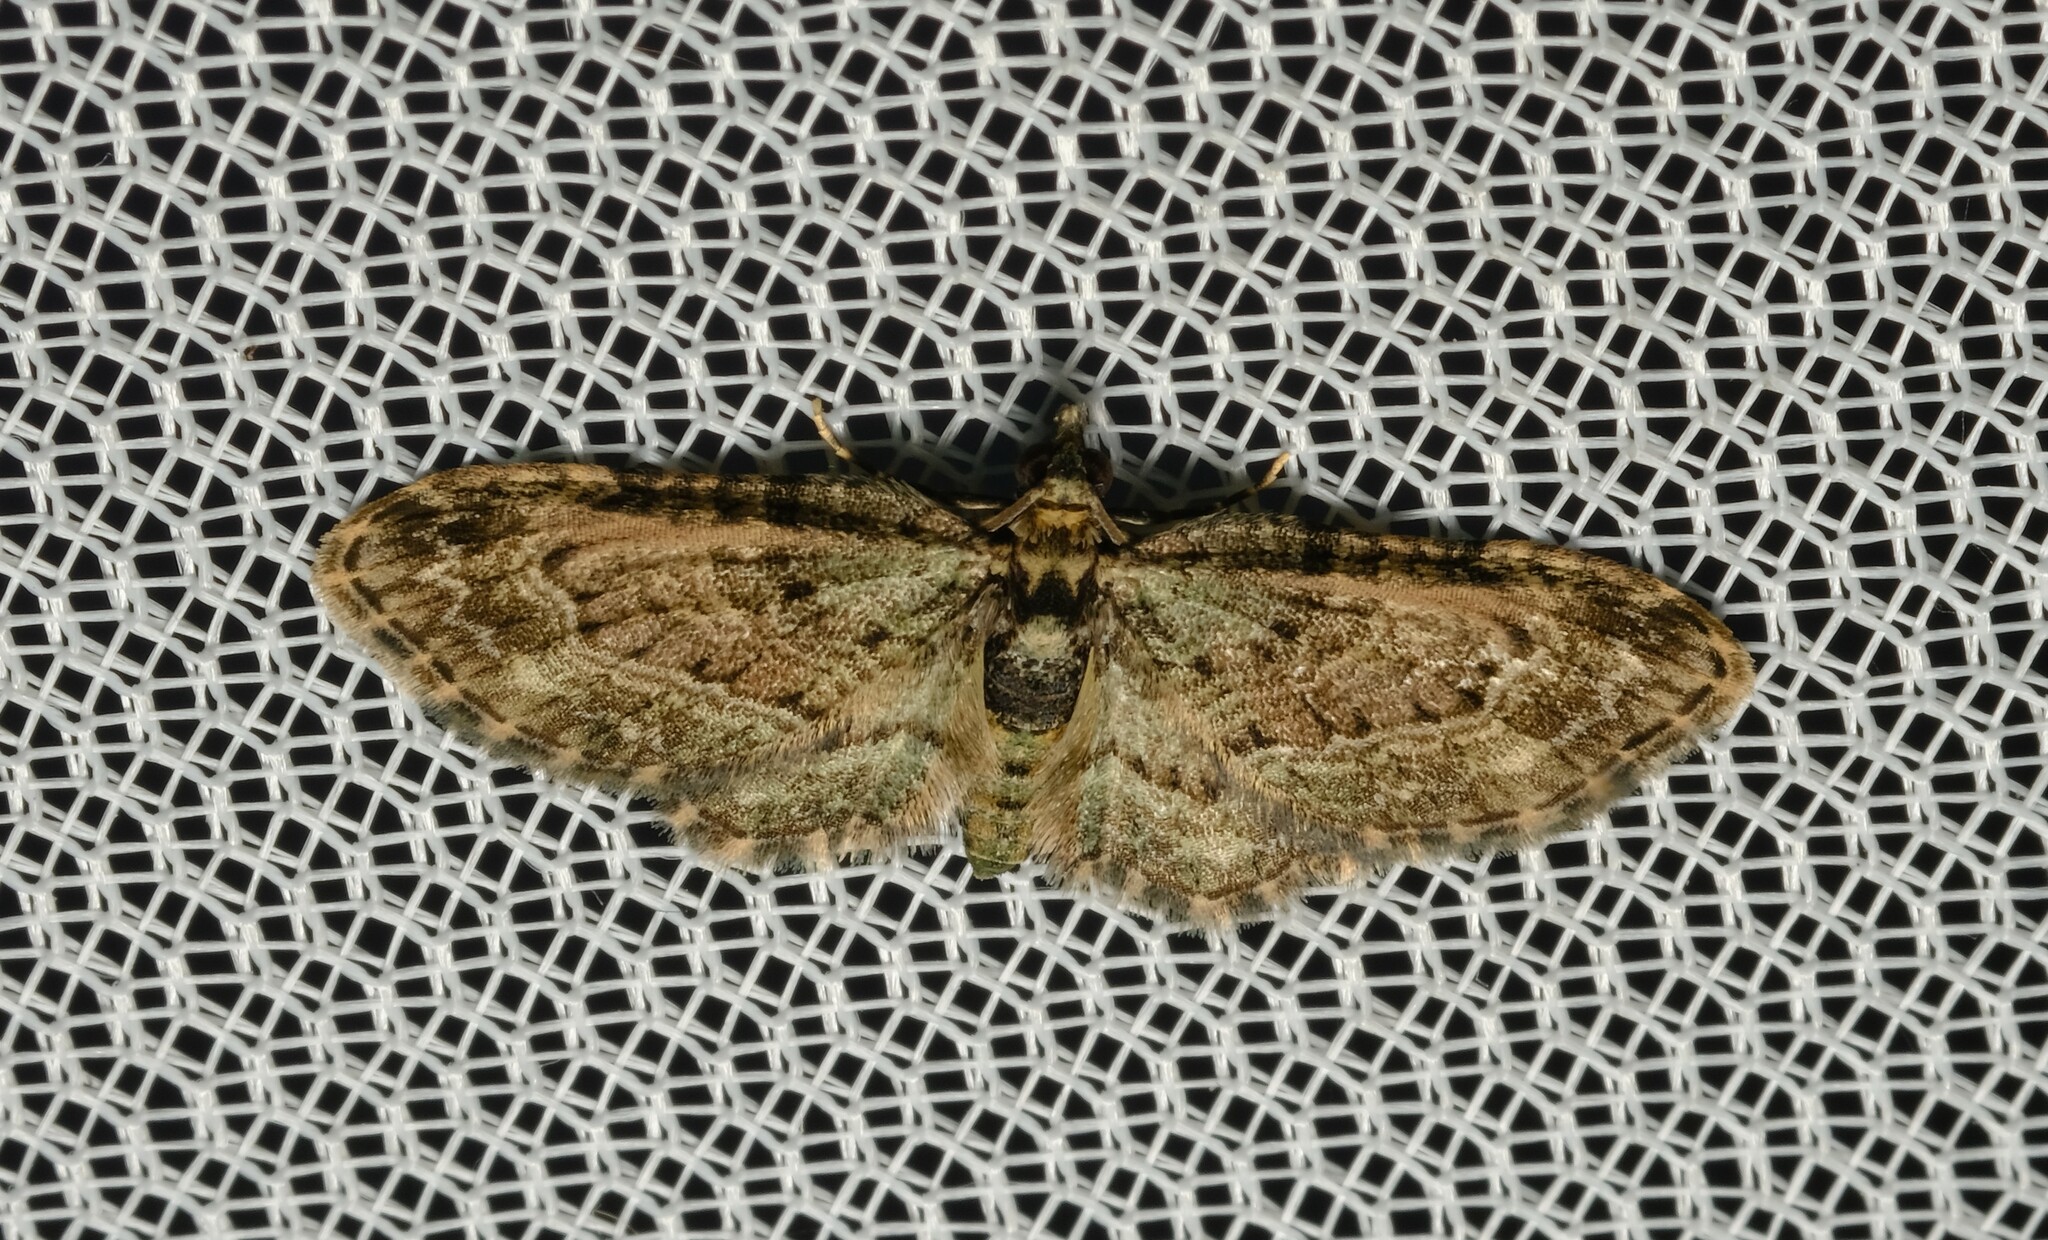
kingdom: Animalia
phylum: Arthropoda
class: Insecta
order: Lepidoptera
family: Geometridae
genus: Chloroclystis
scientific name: Chloroclystis catastreptes
